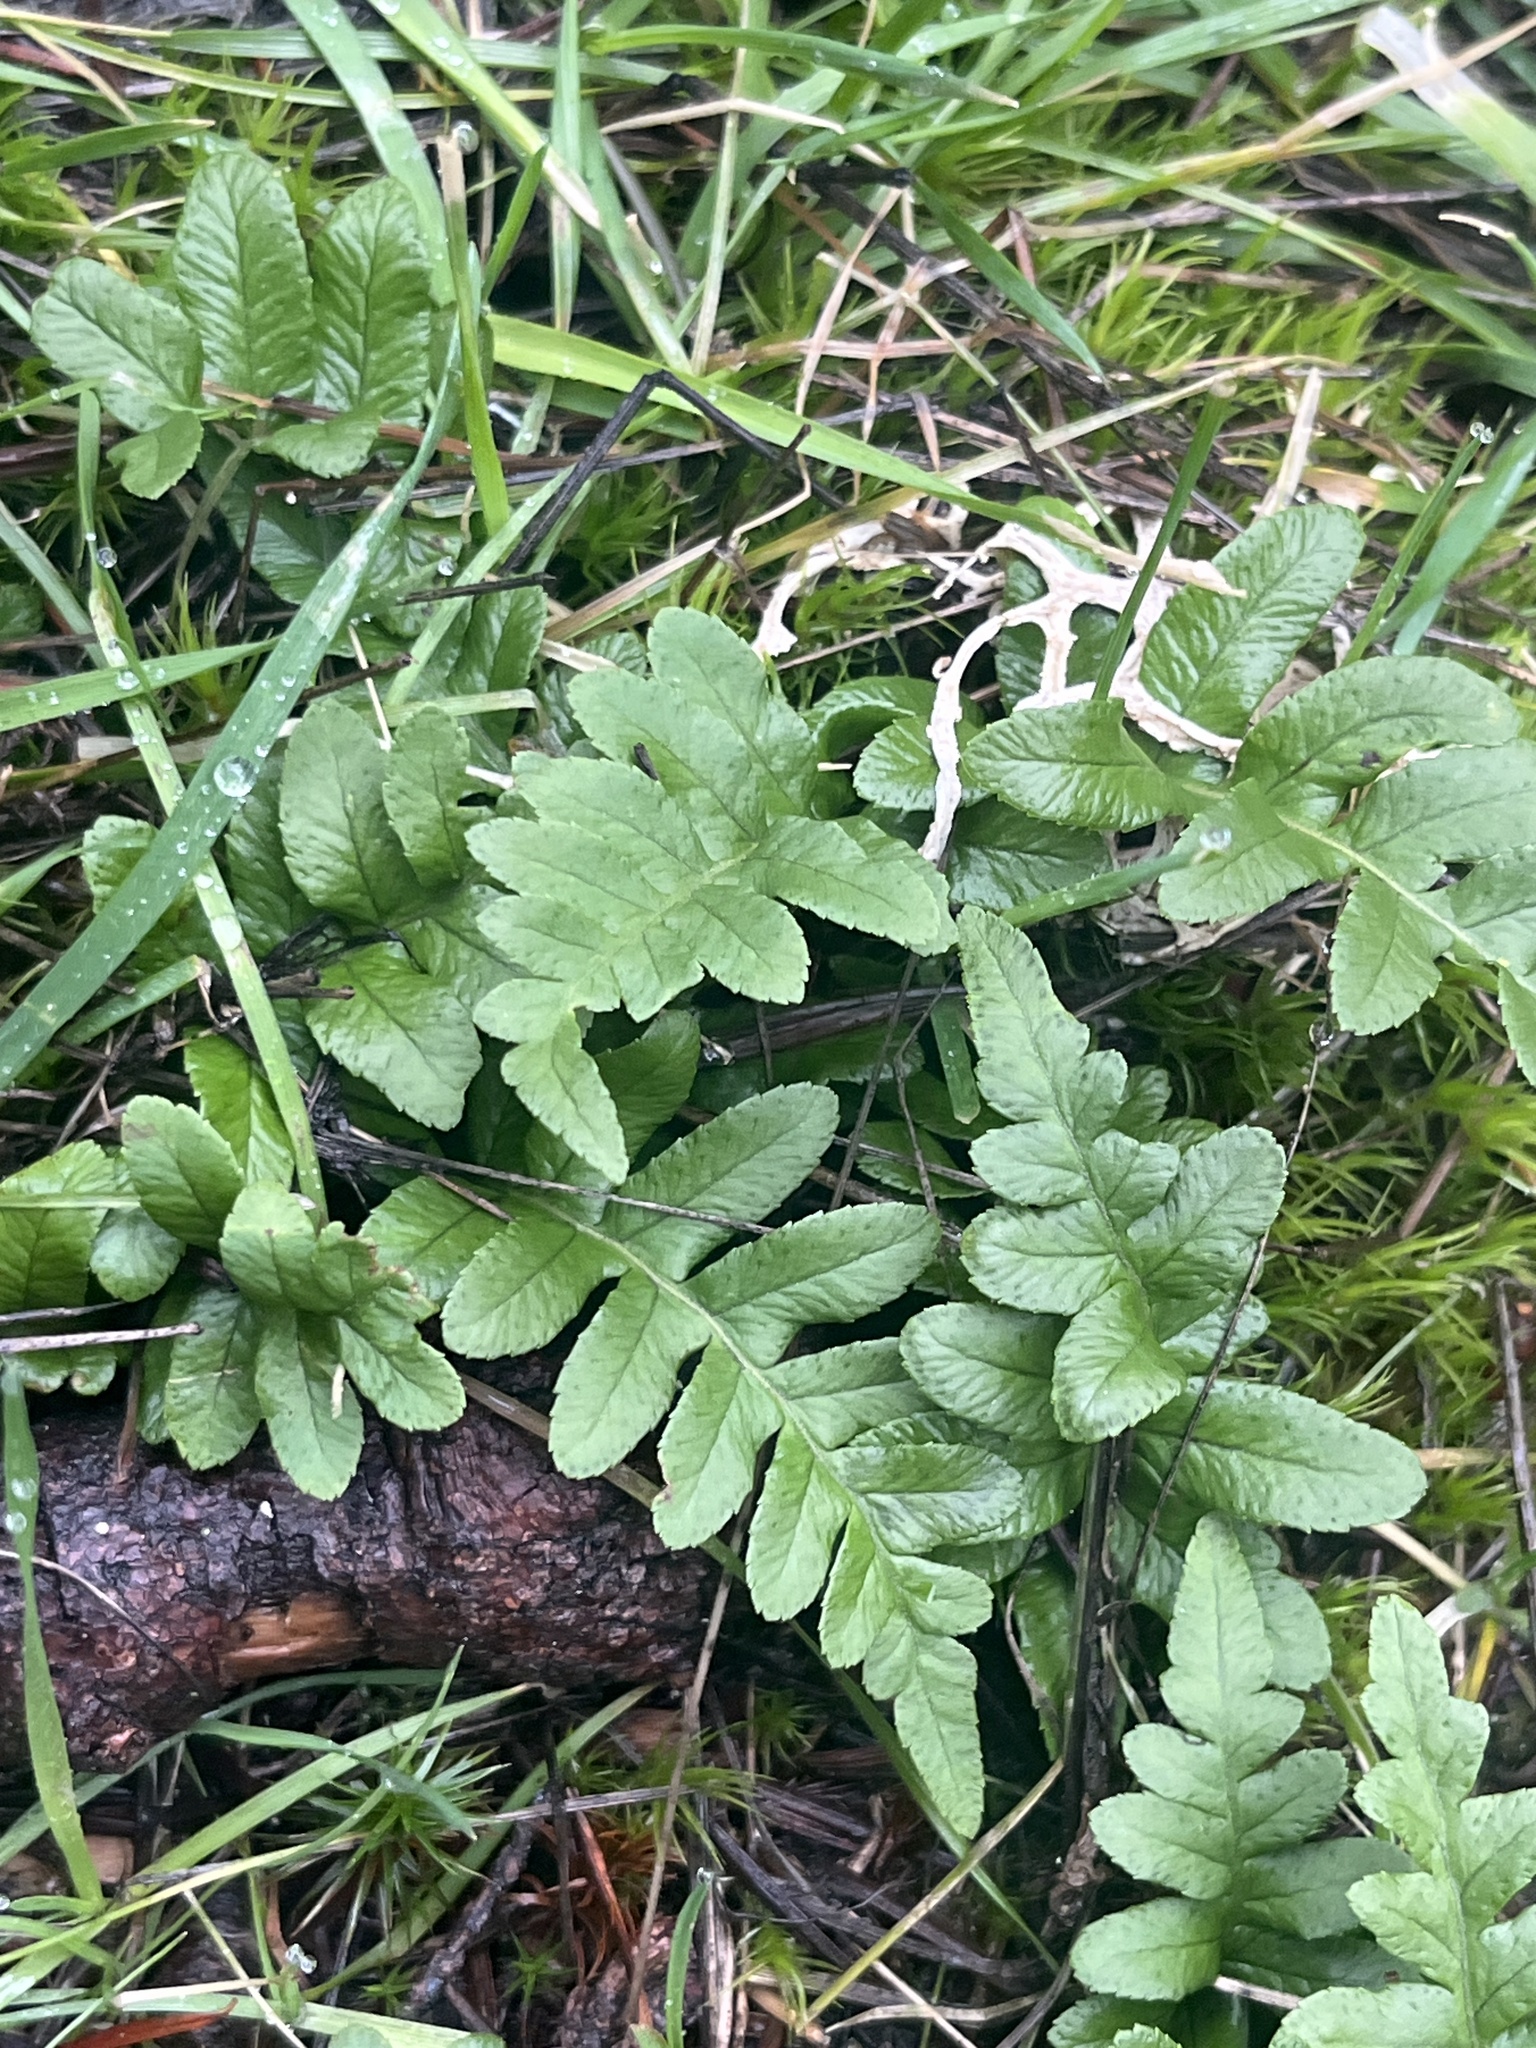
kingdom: Plantae
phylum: Tracheophyta
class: Polypodiopsida
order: Polypodiales
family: Polypodiaceae
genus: Polypodium
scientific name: Polypodium glycyrrhiza
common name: Licorice fern
